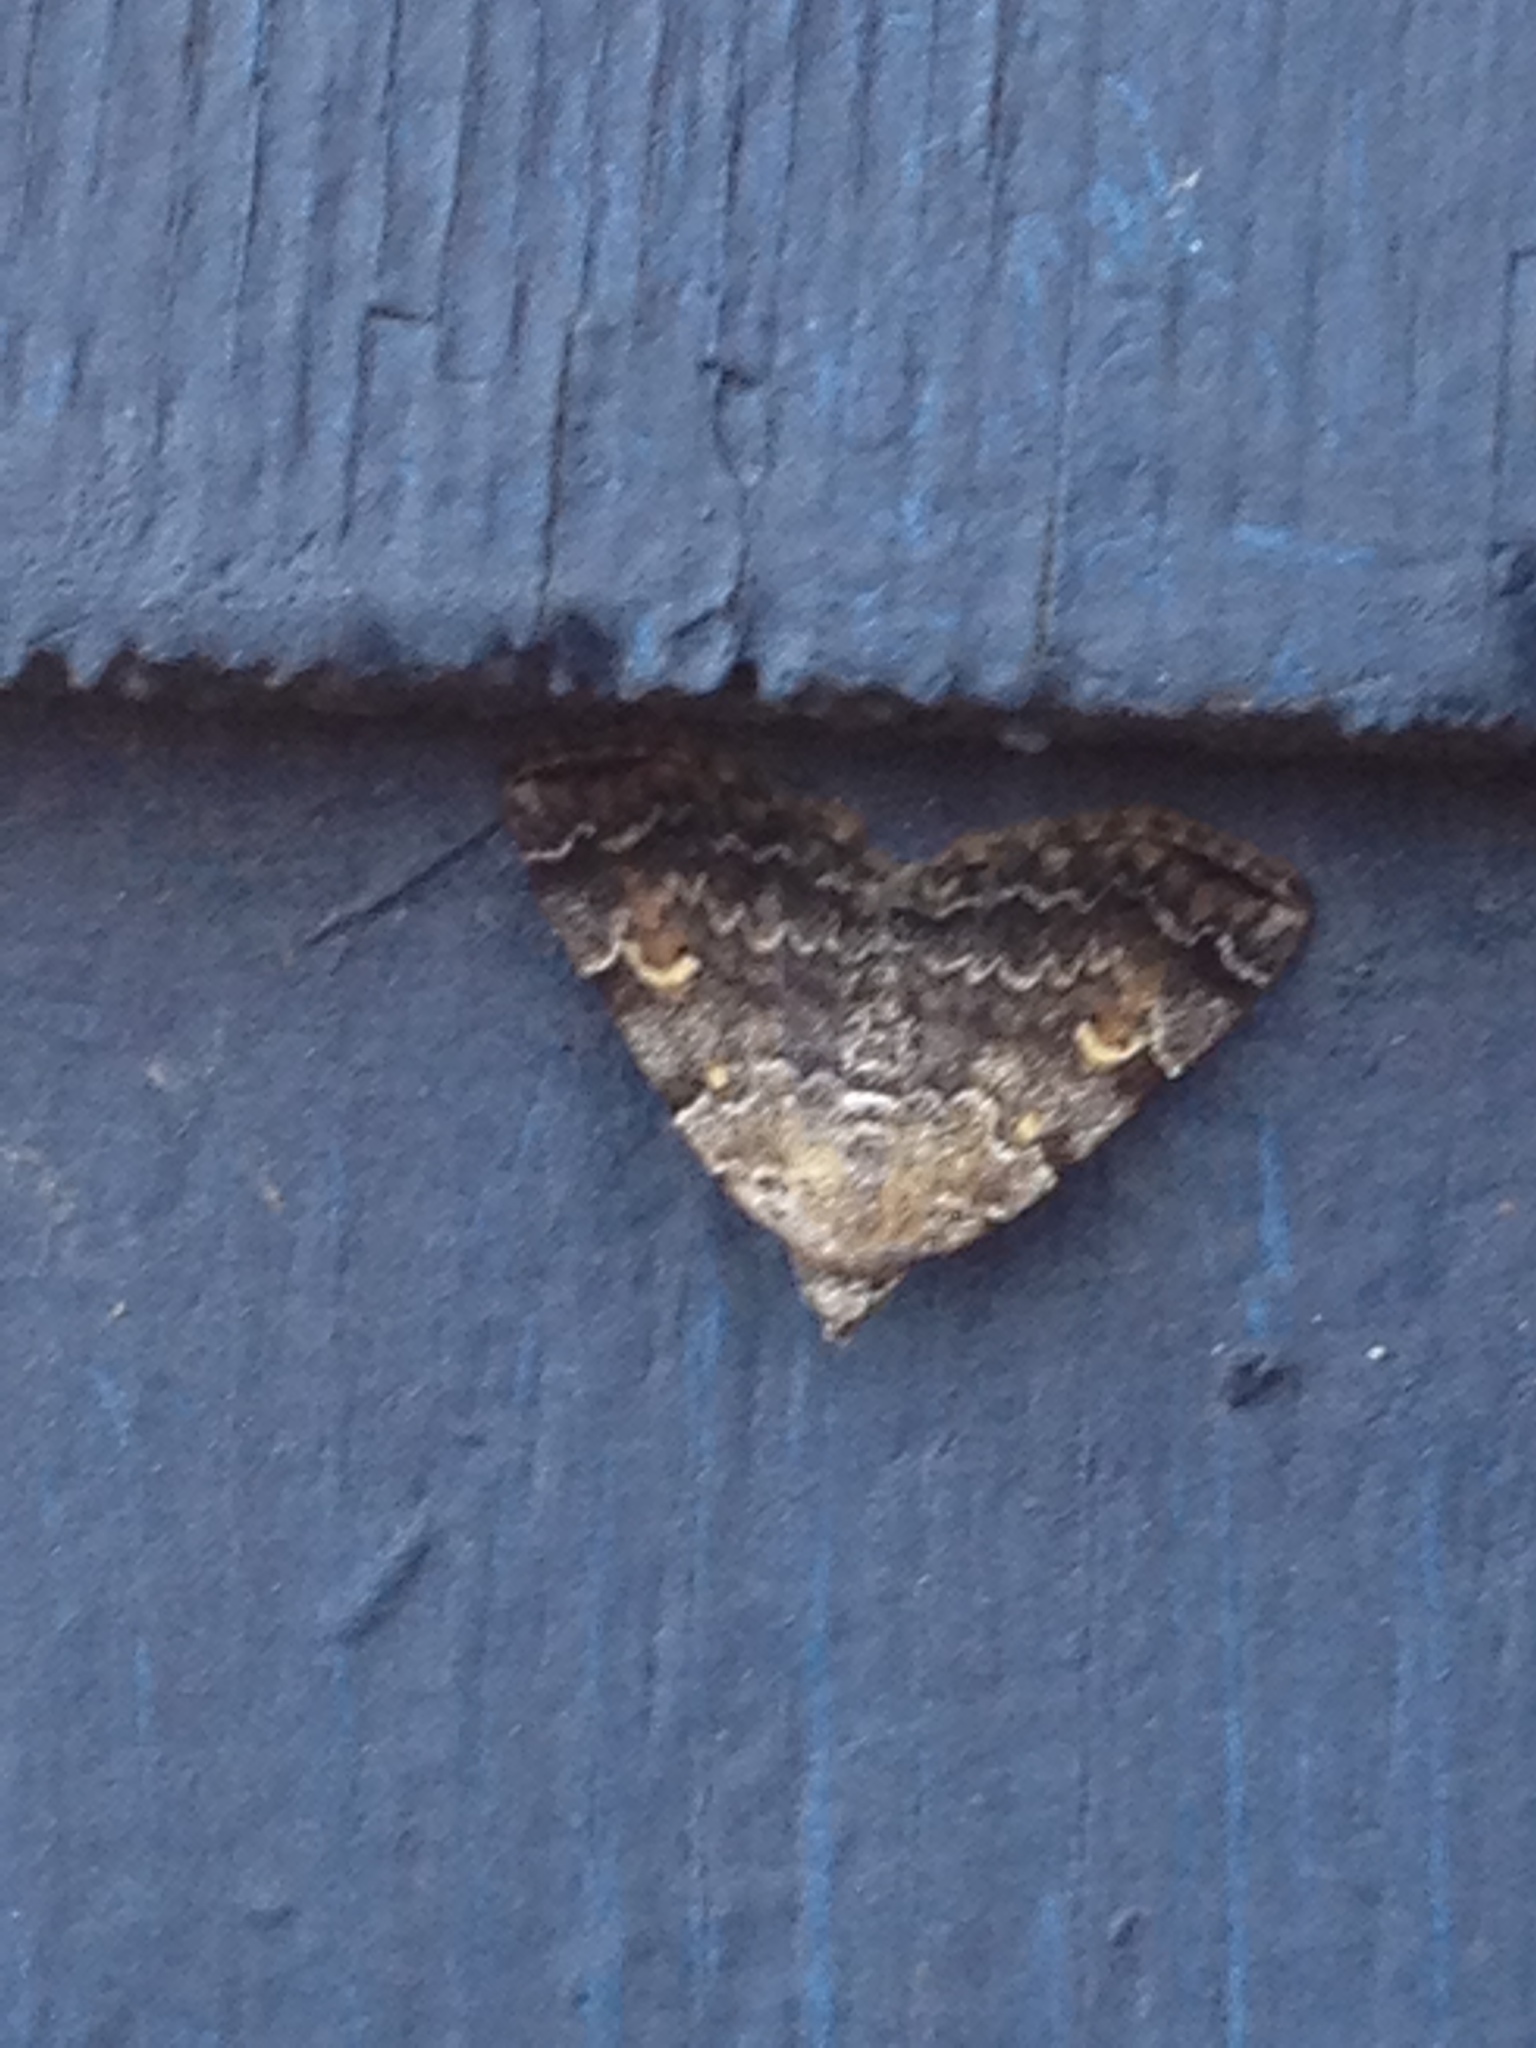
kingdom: Animalia
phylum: Arthropoda
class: Insecta
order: Lepidoptera
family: Erebidae
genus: Idia
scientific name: Idia americalis
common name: American idia moth
